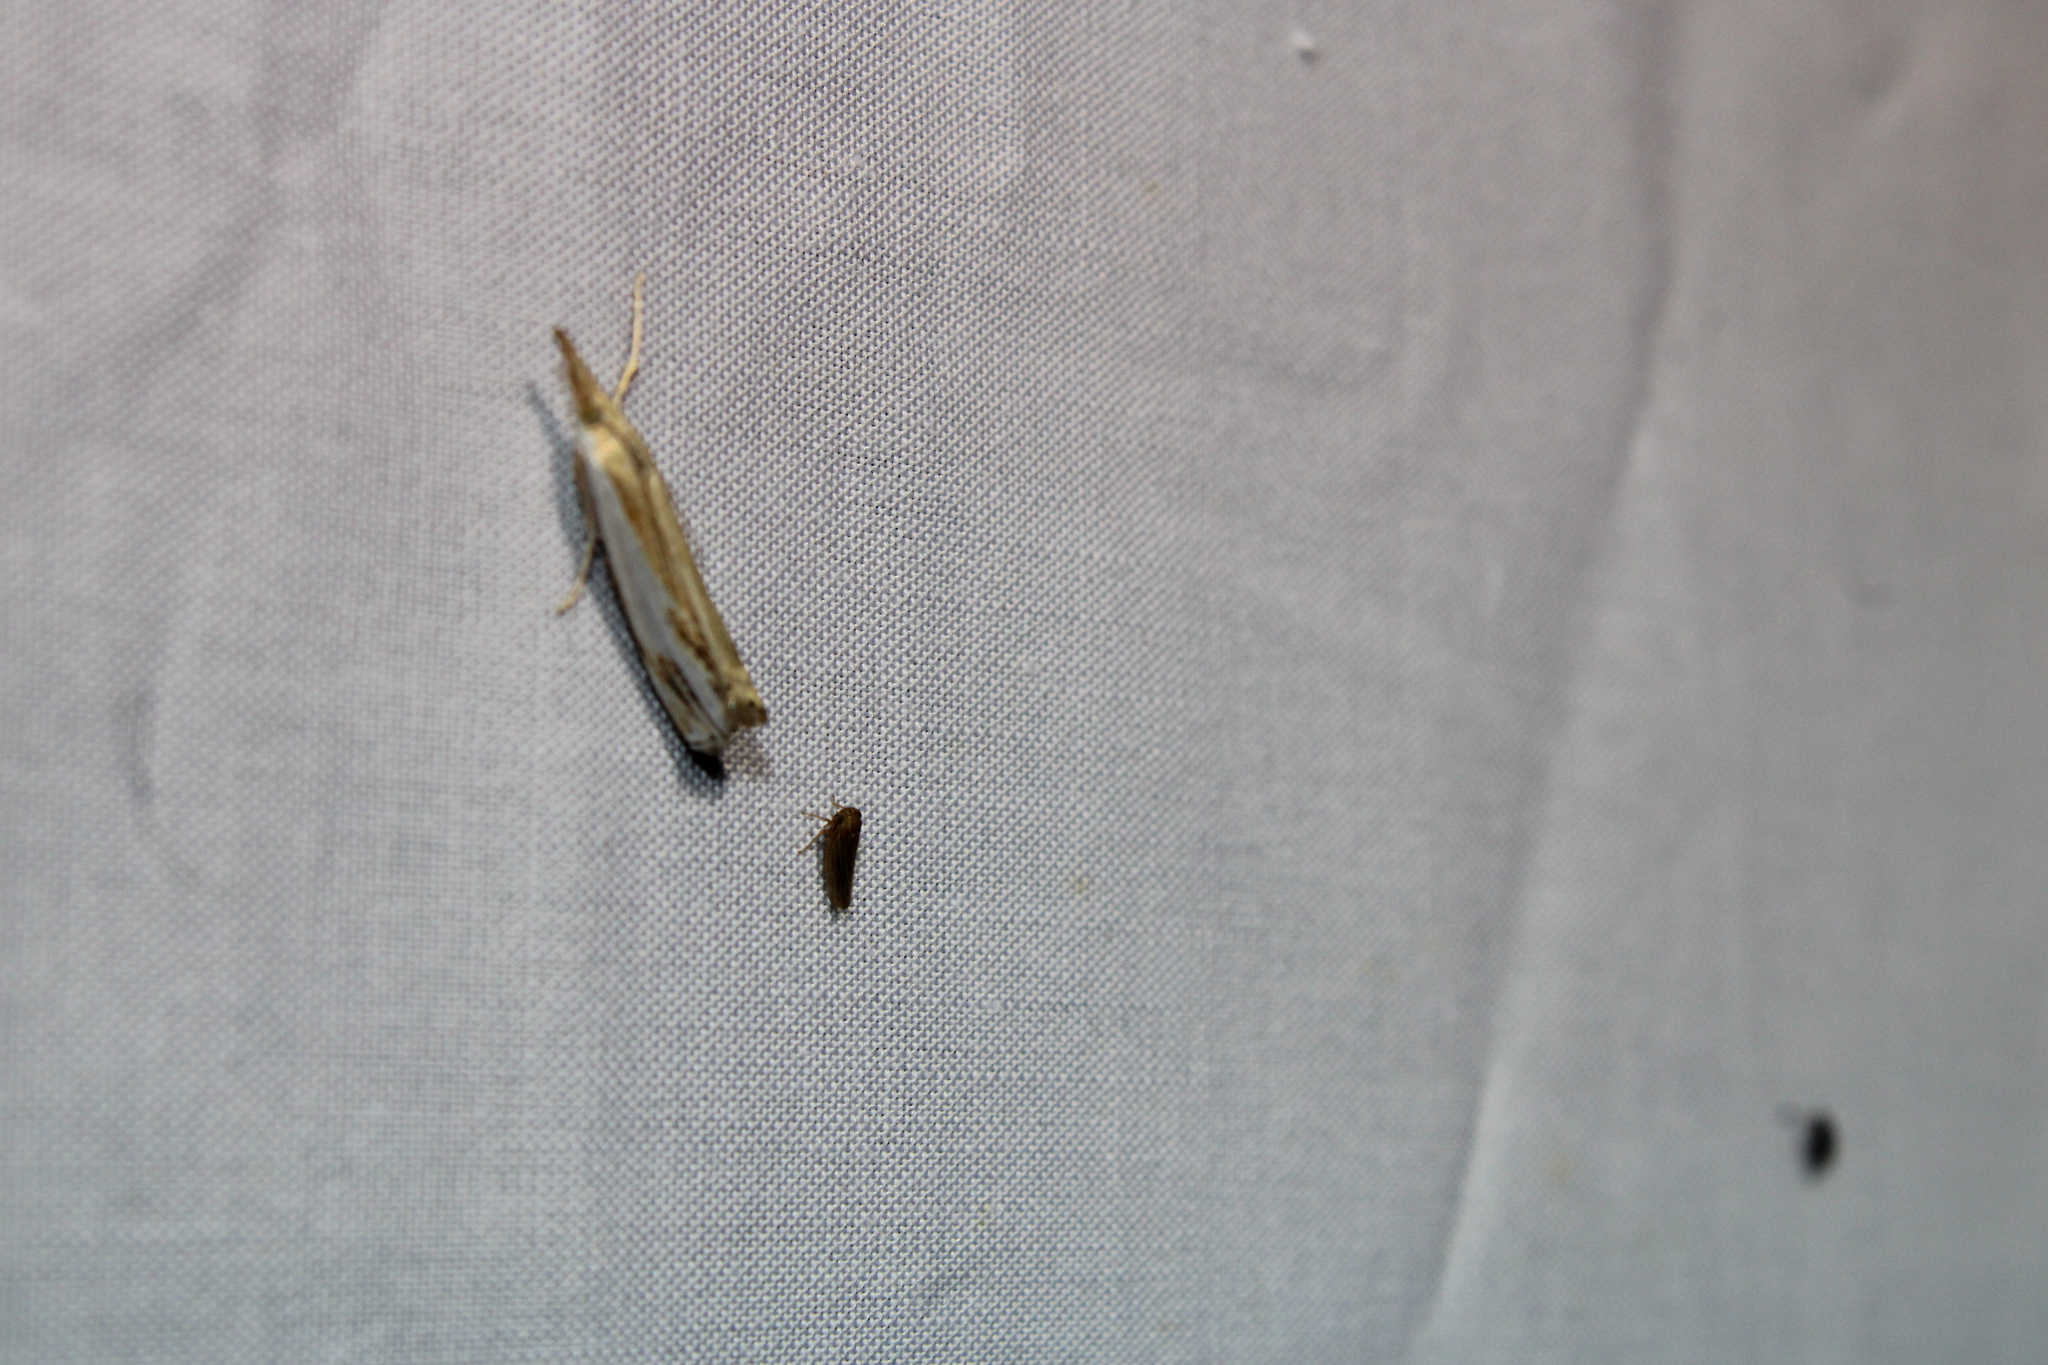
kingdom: Animalia
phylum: Arthropoda
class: Insecta
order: Lepidoptera
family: Crambidae
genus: Crambus
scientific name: Crambus agitatellus
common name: Double-banded grass-veneer
